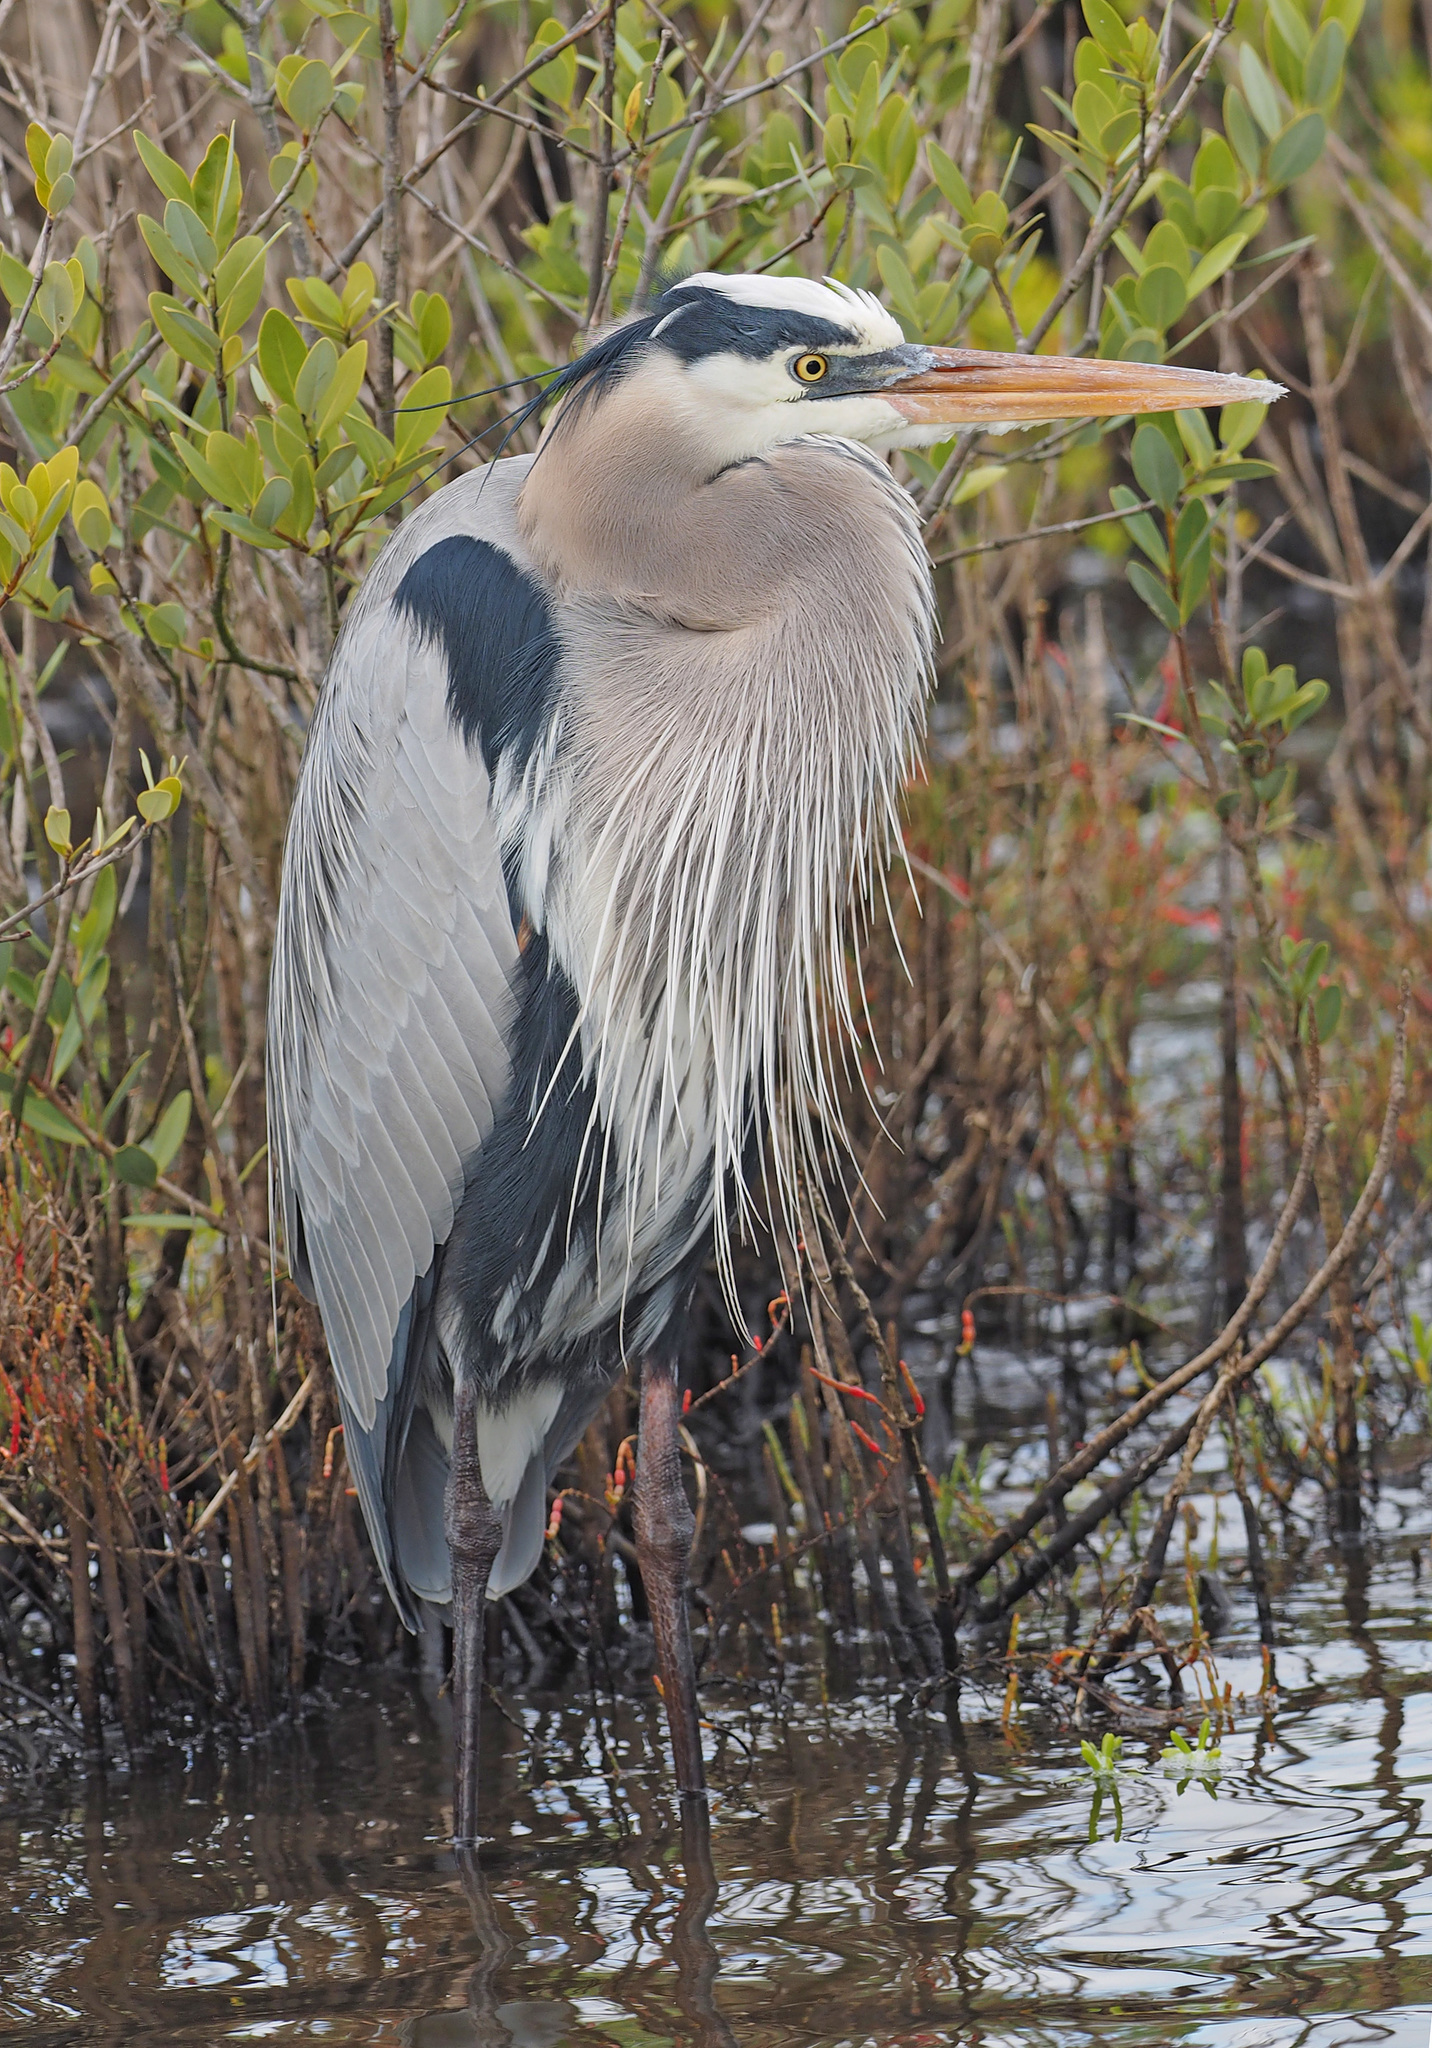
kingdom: Animalia
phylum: Chordata
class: Aves
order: Pelecaniformes
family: Ardeidae
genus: Ardea
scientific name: Ardea herodias
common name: Great blue heron
